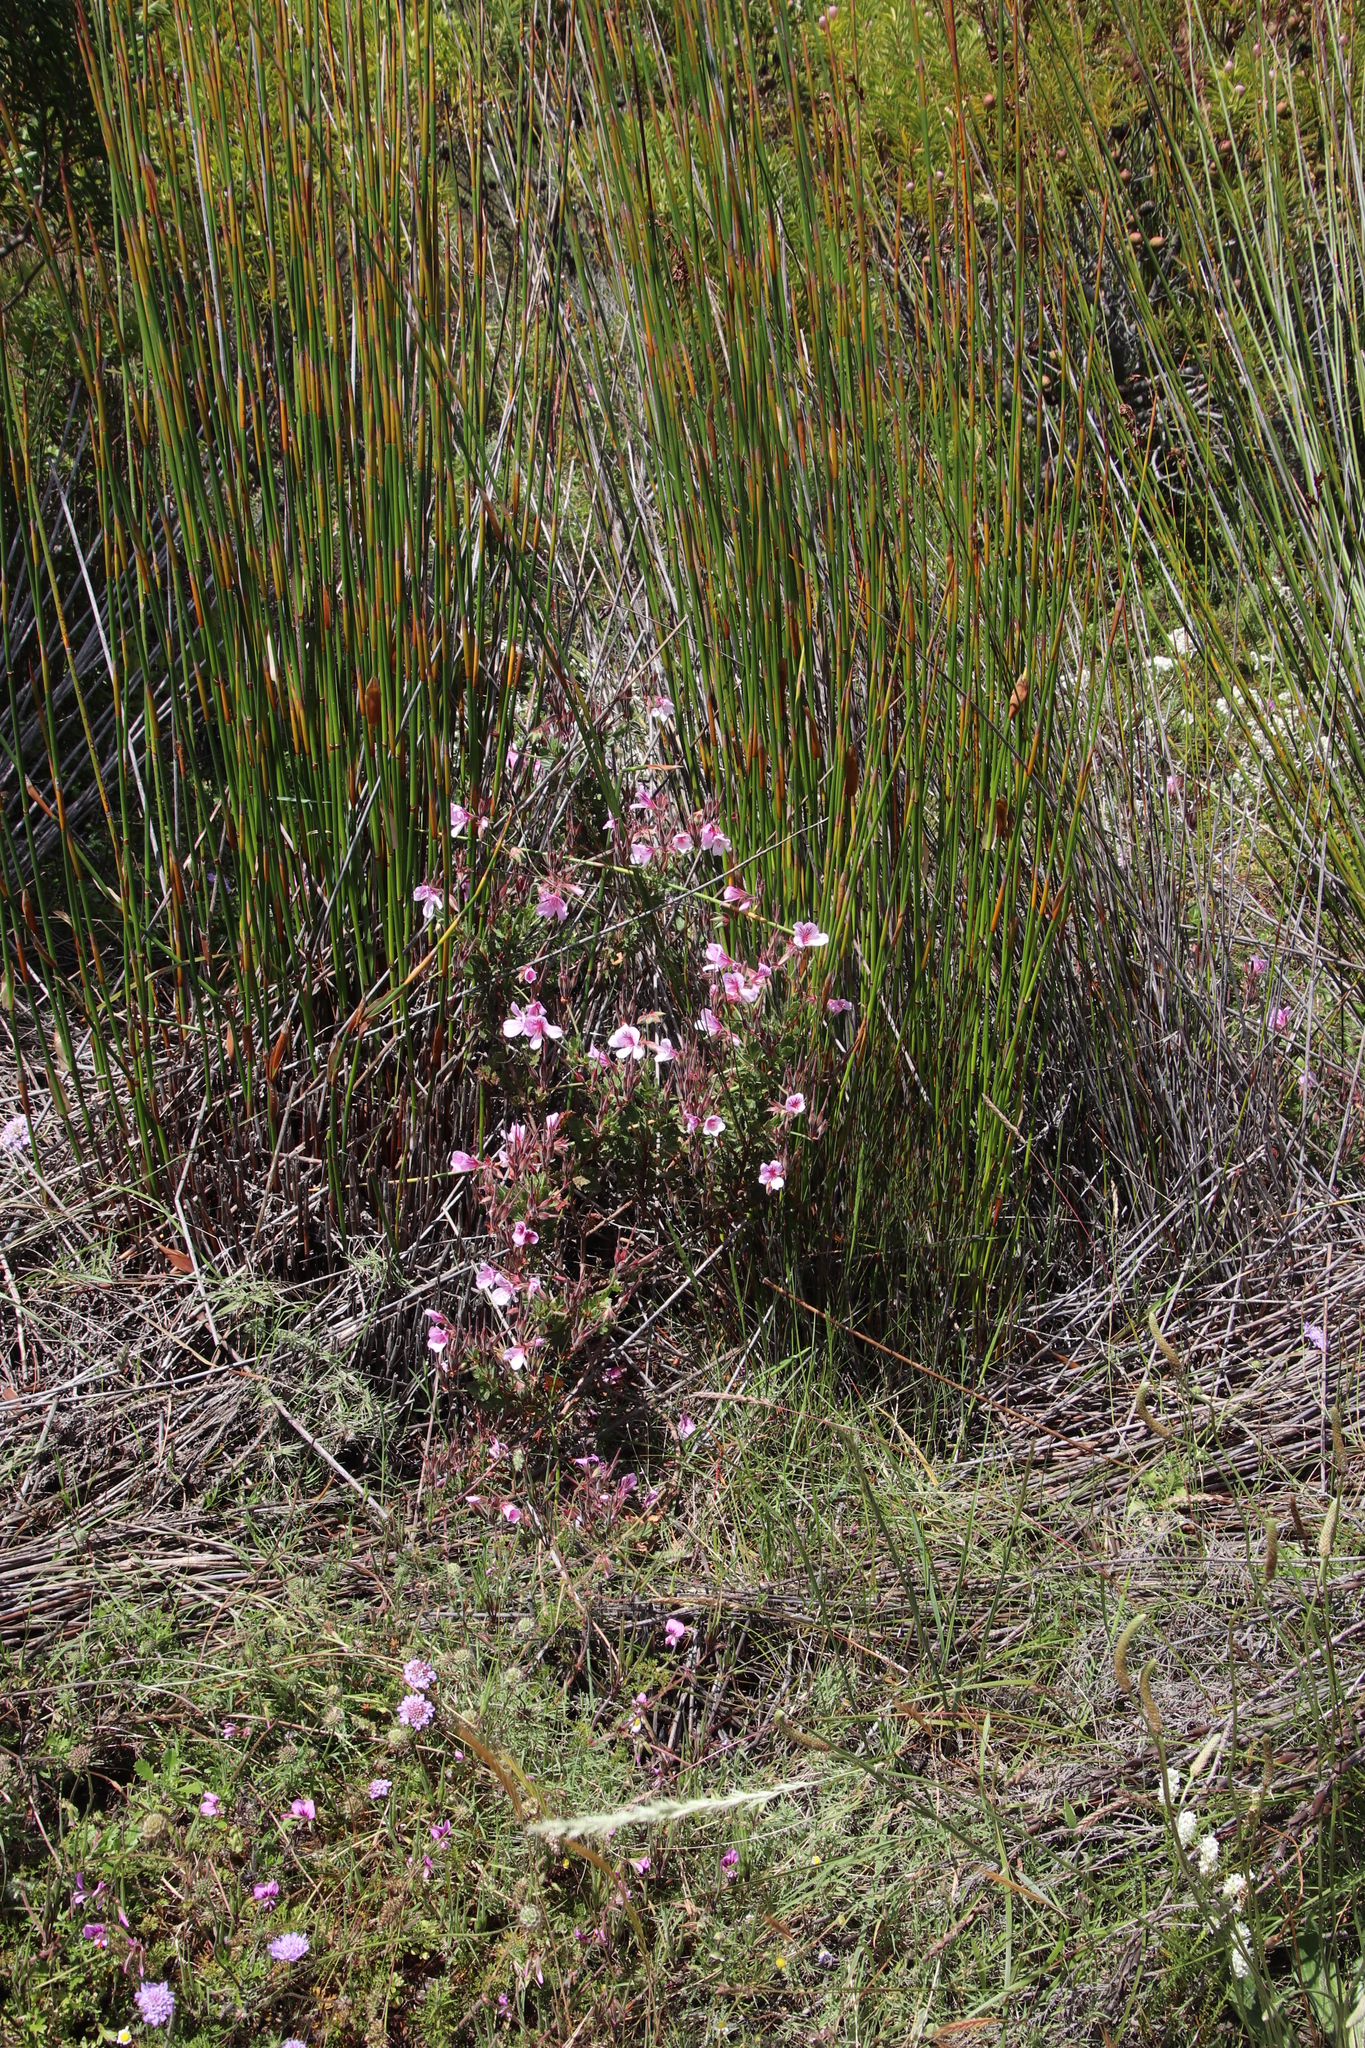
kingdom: Plantae
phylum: Tracheophyta
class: Magnoliopsida
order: Geraniales
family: Geraniaceae
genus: Pelargonium
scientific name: Pelargonium betulinum
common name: Birch-leaf pelargonium
